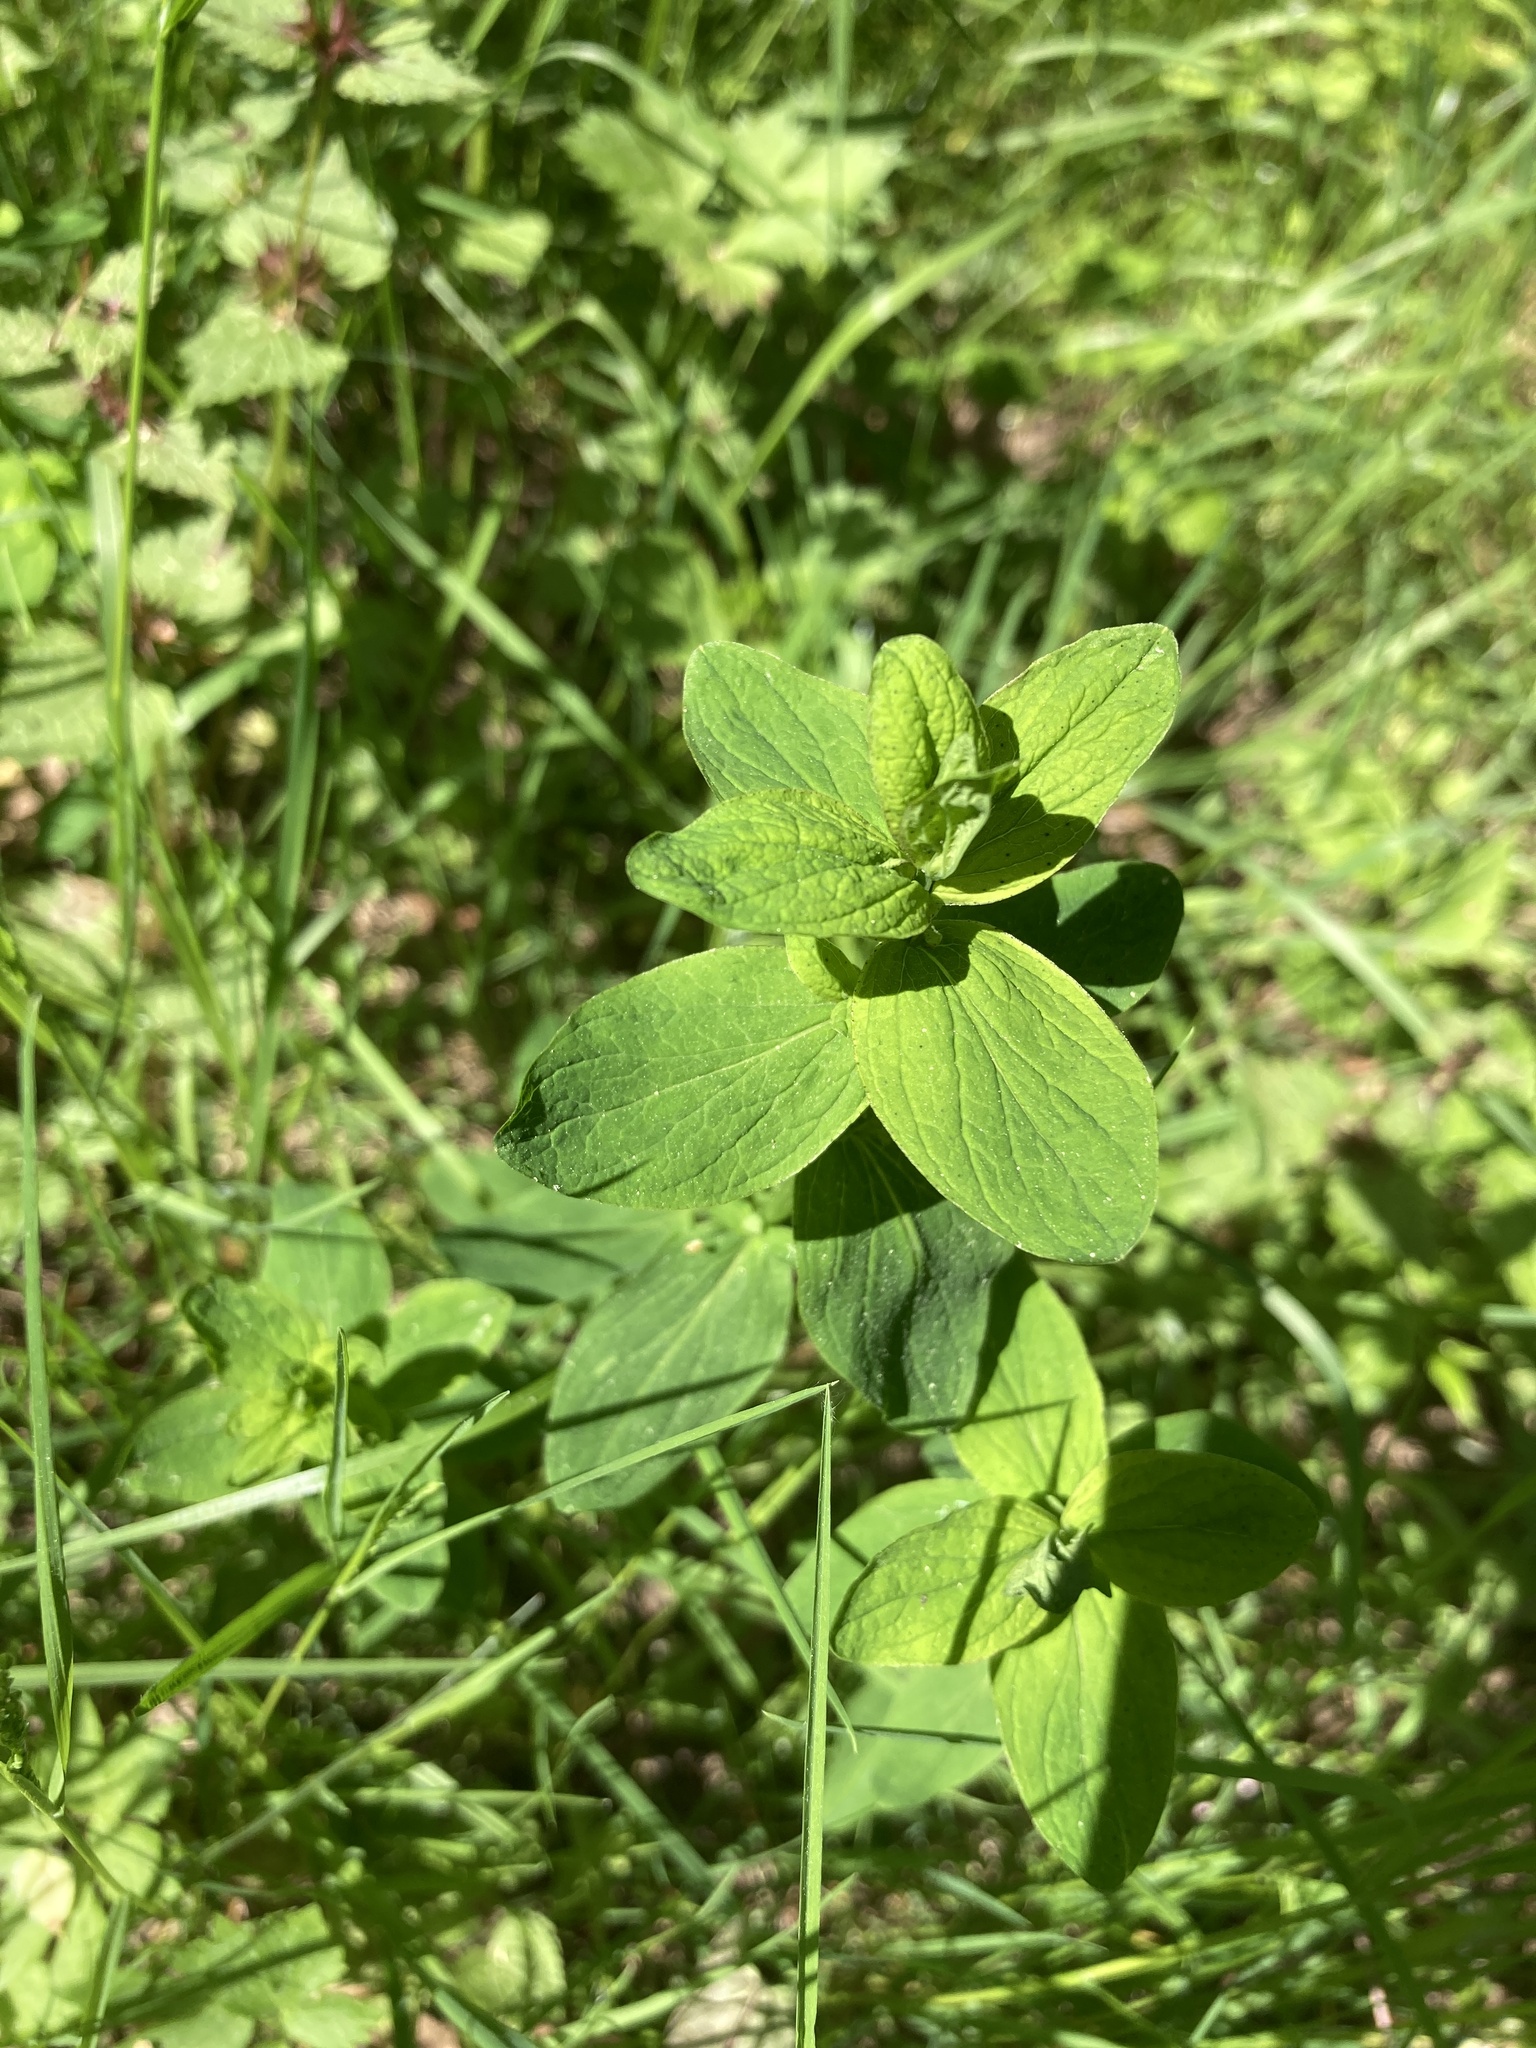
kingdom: Plantae
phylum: Tracheophyta
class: Magnoliopsida
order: Malpighiales
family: Hypericaceae
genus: Hypericum
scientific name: Hypericum maculatum
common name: Imperforate st. john's-wort
